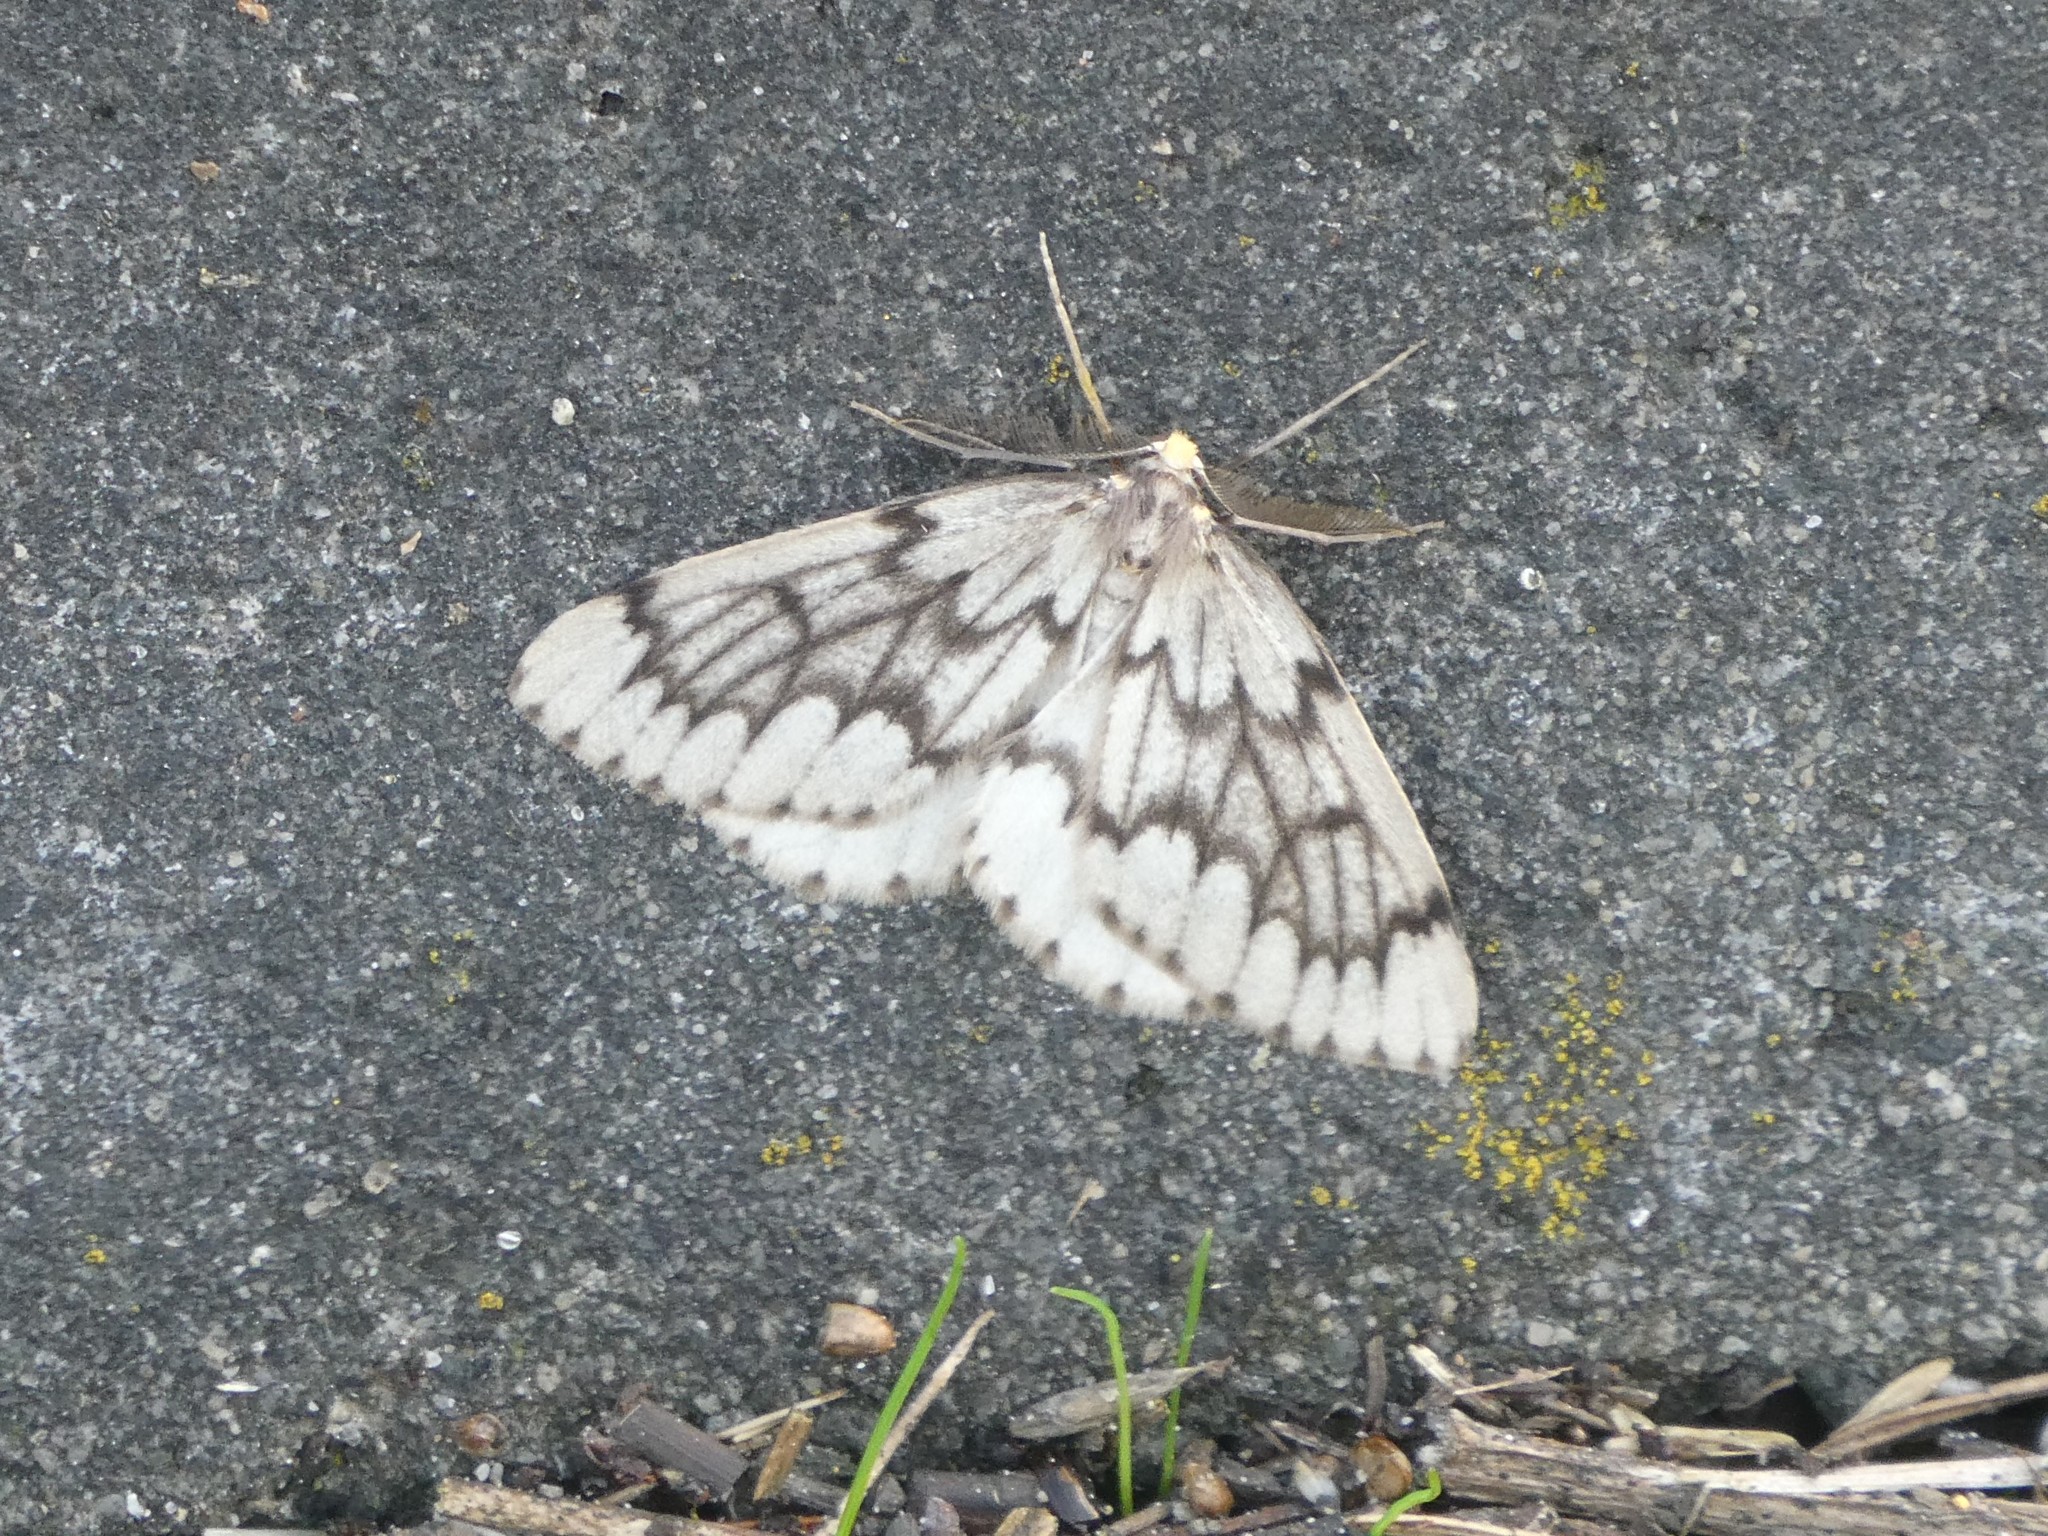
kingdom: Animalia
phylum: Arthropoda
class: Insecta
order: Lepidoptera
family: Geometridae
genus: Nepytia
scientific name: Nepytia phantasmaria
